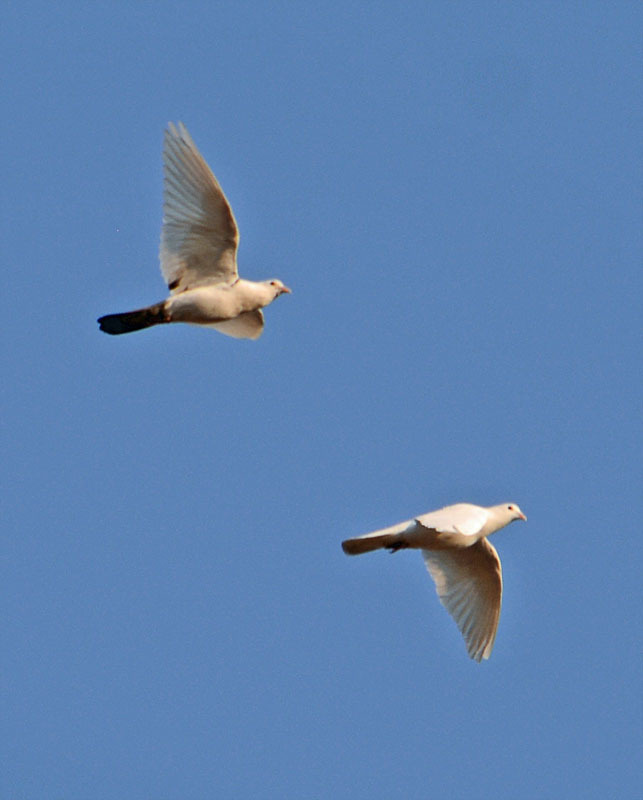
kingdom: Animalia
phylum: Chordata
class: Aves
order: Columbiformes
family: Columbidae
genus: Columba
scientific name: Columba livia
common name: Rock pigeon
